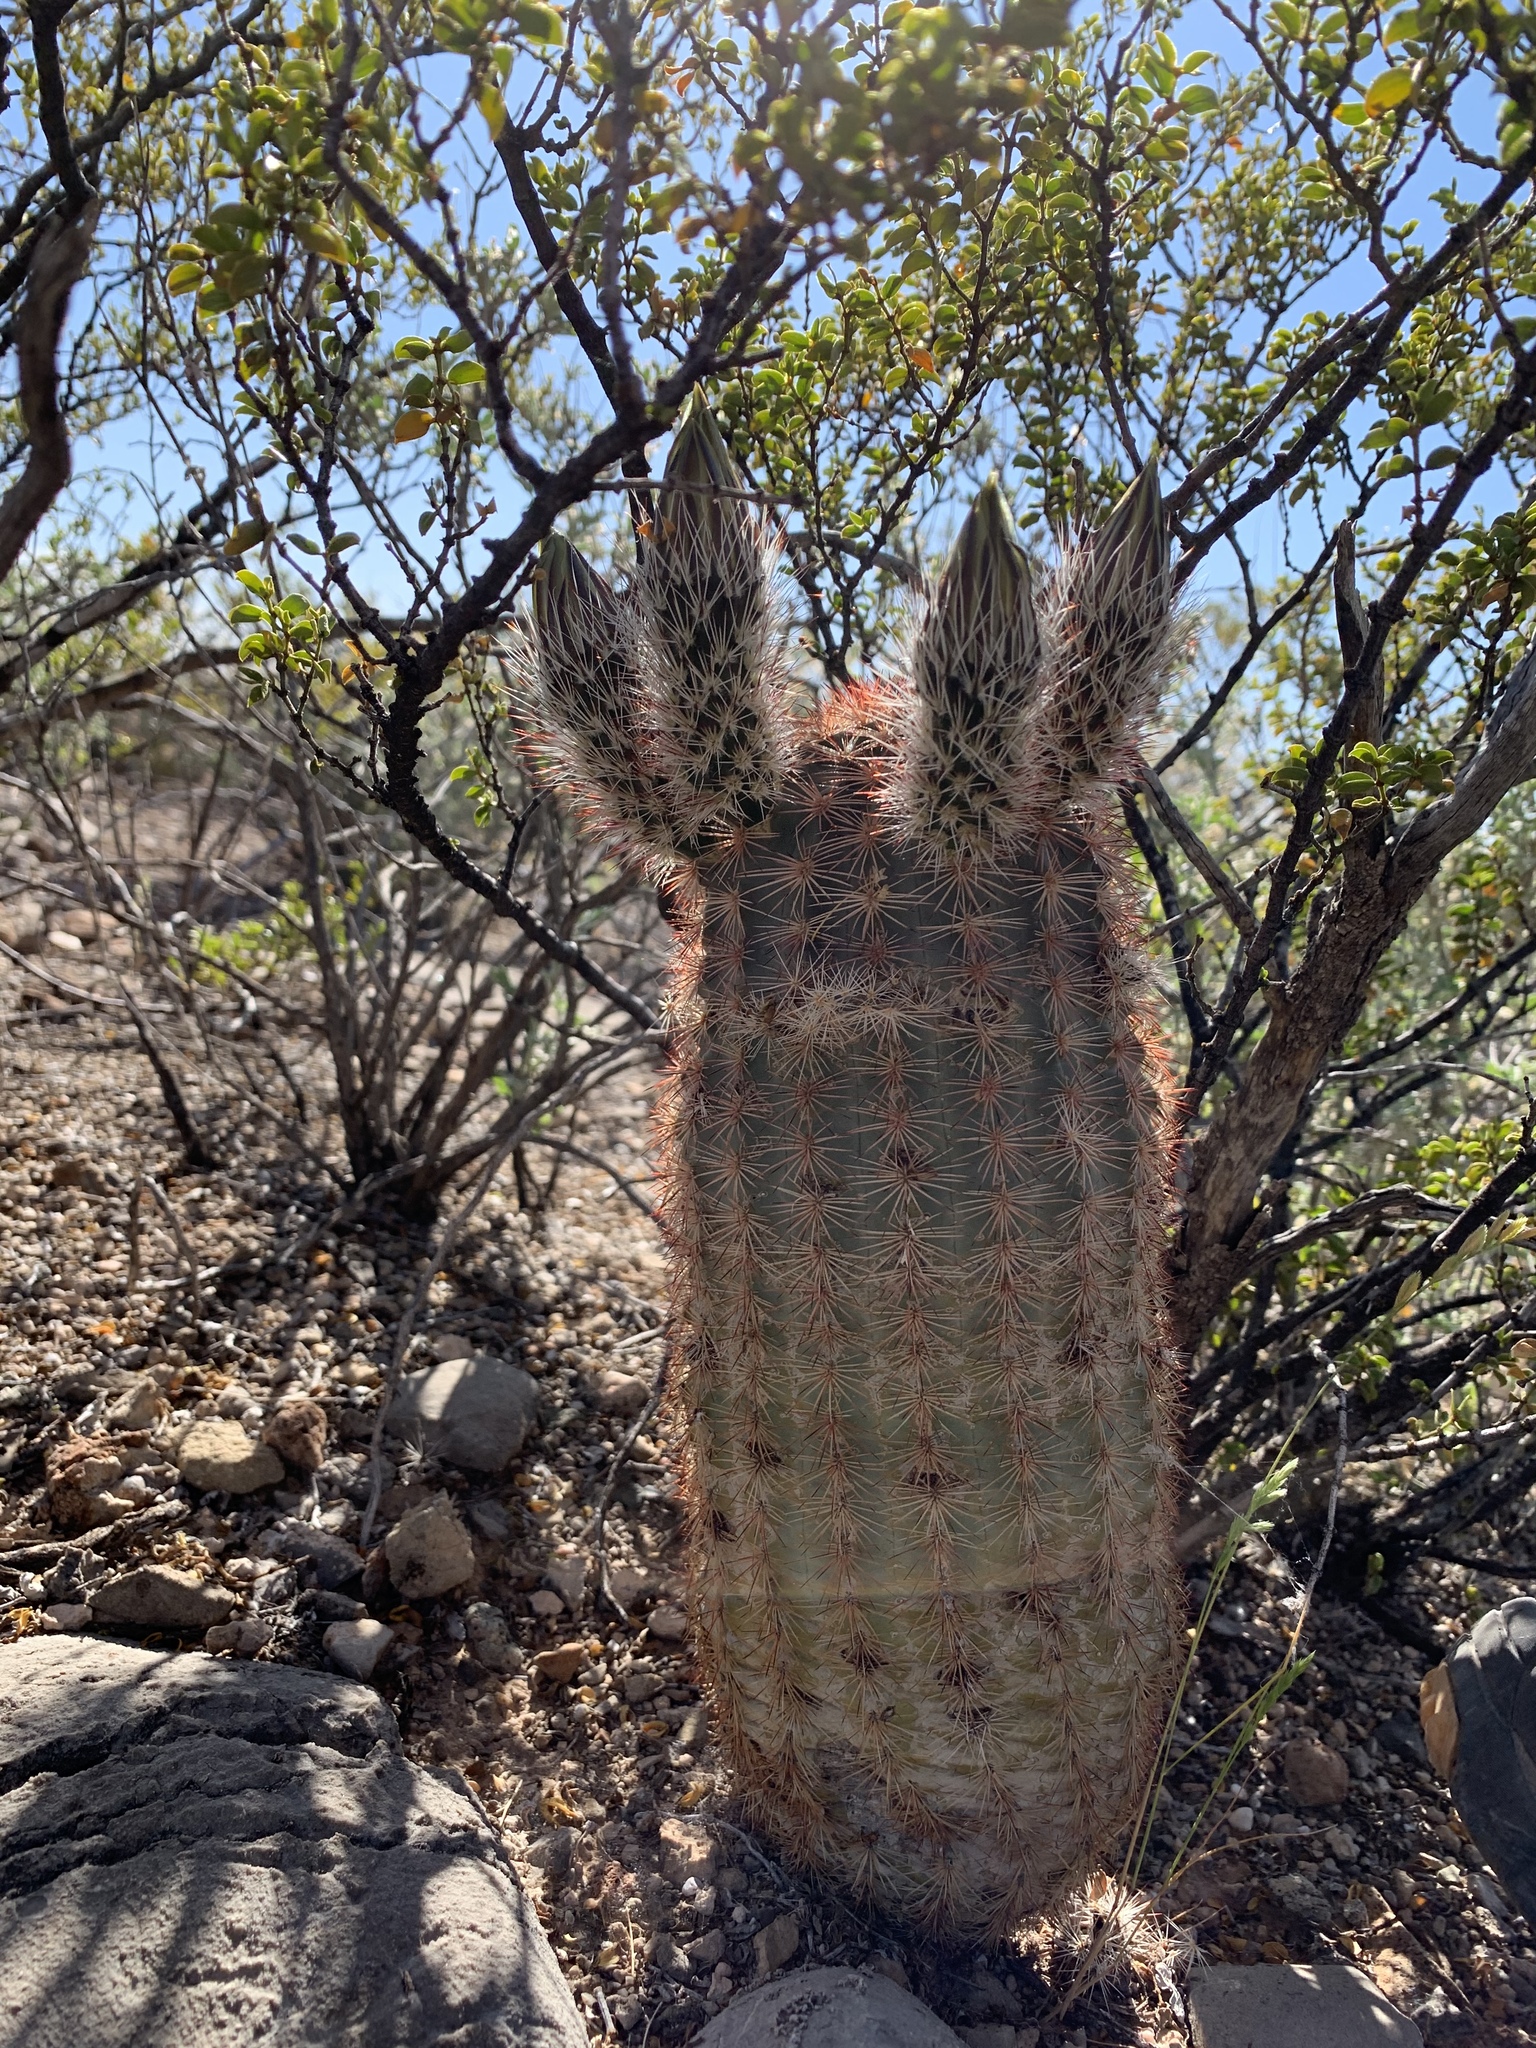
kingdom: Plantae
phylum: Tracheophyta
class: Magnoliopsida
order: Caryophyllales
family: Cactaceae
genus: Echinocereus
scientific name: Echinocereus dasyacanthus
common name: Spiny hedgehog cactus
